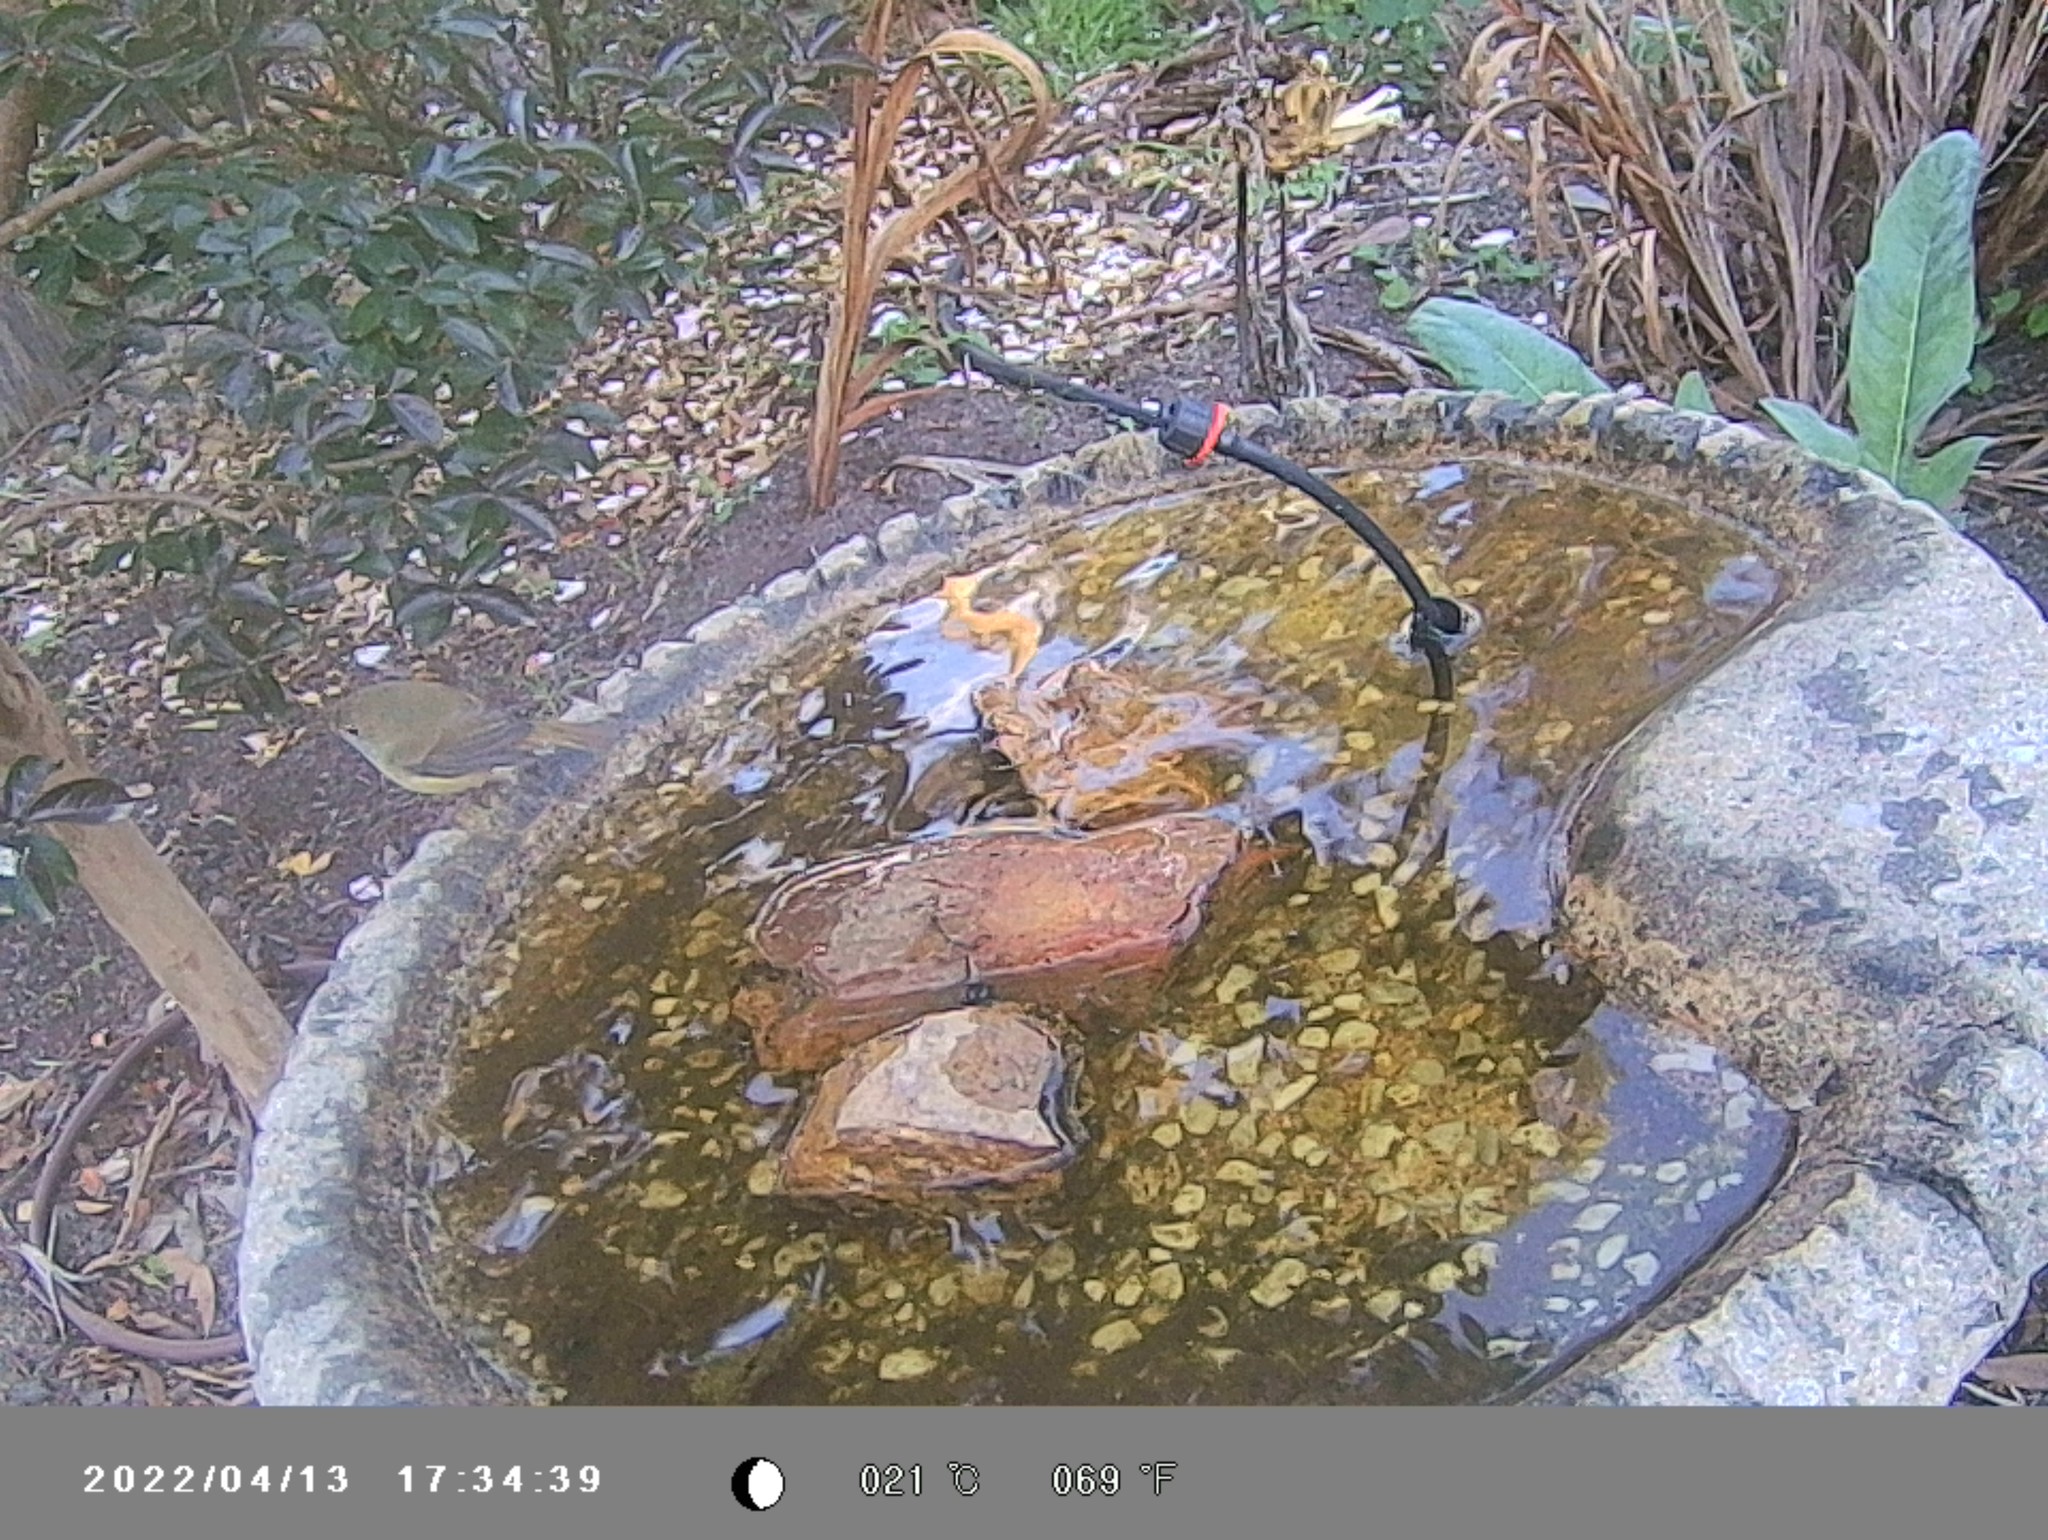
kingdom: Animalia
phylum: Chordata
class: Aves
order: Passeriformes
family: Acanthizidae
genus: Acanthiza
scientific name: Acanthiza pusilla
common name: Brown thornbill
